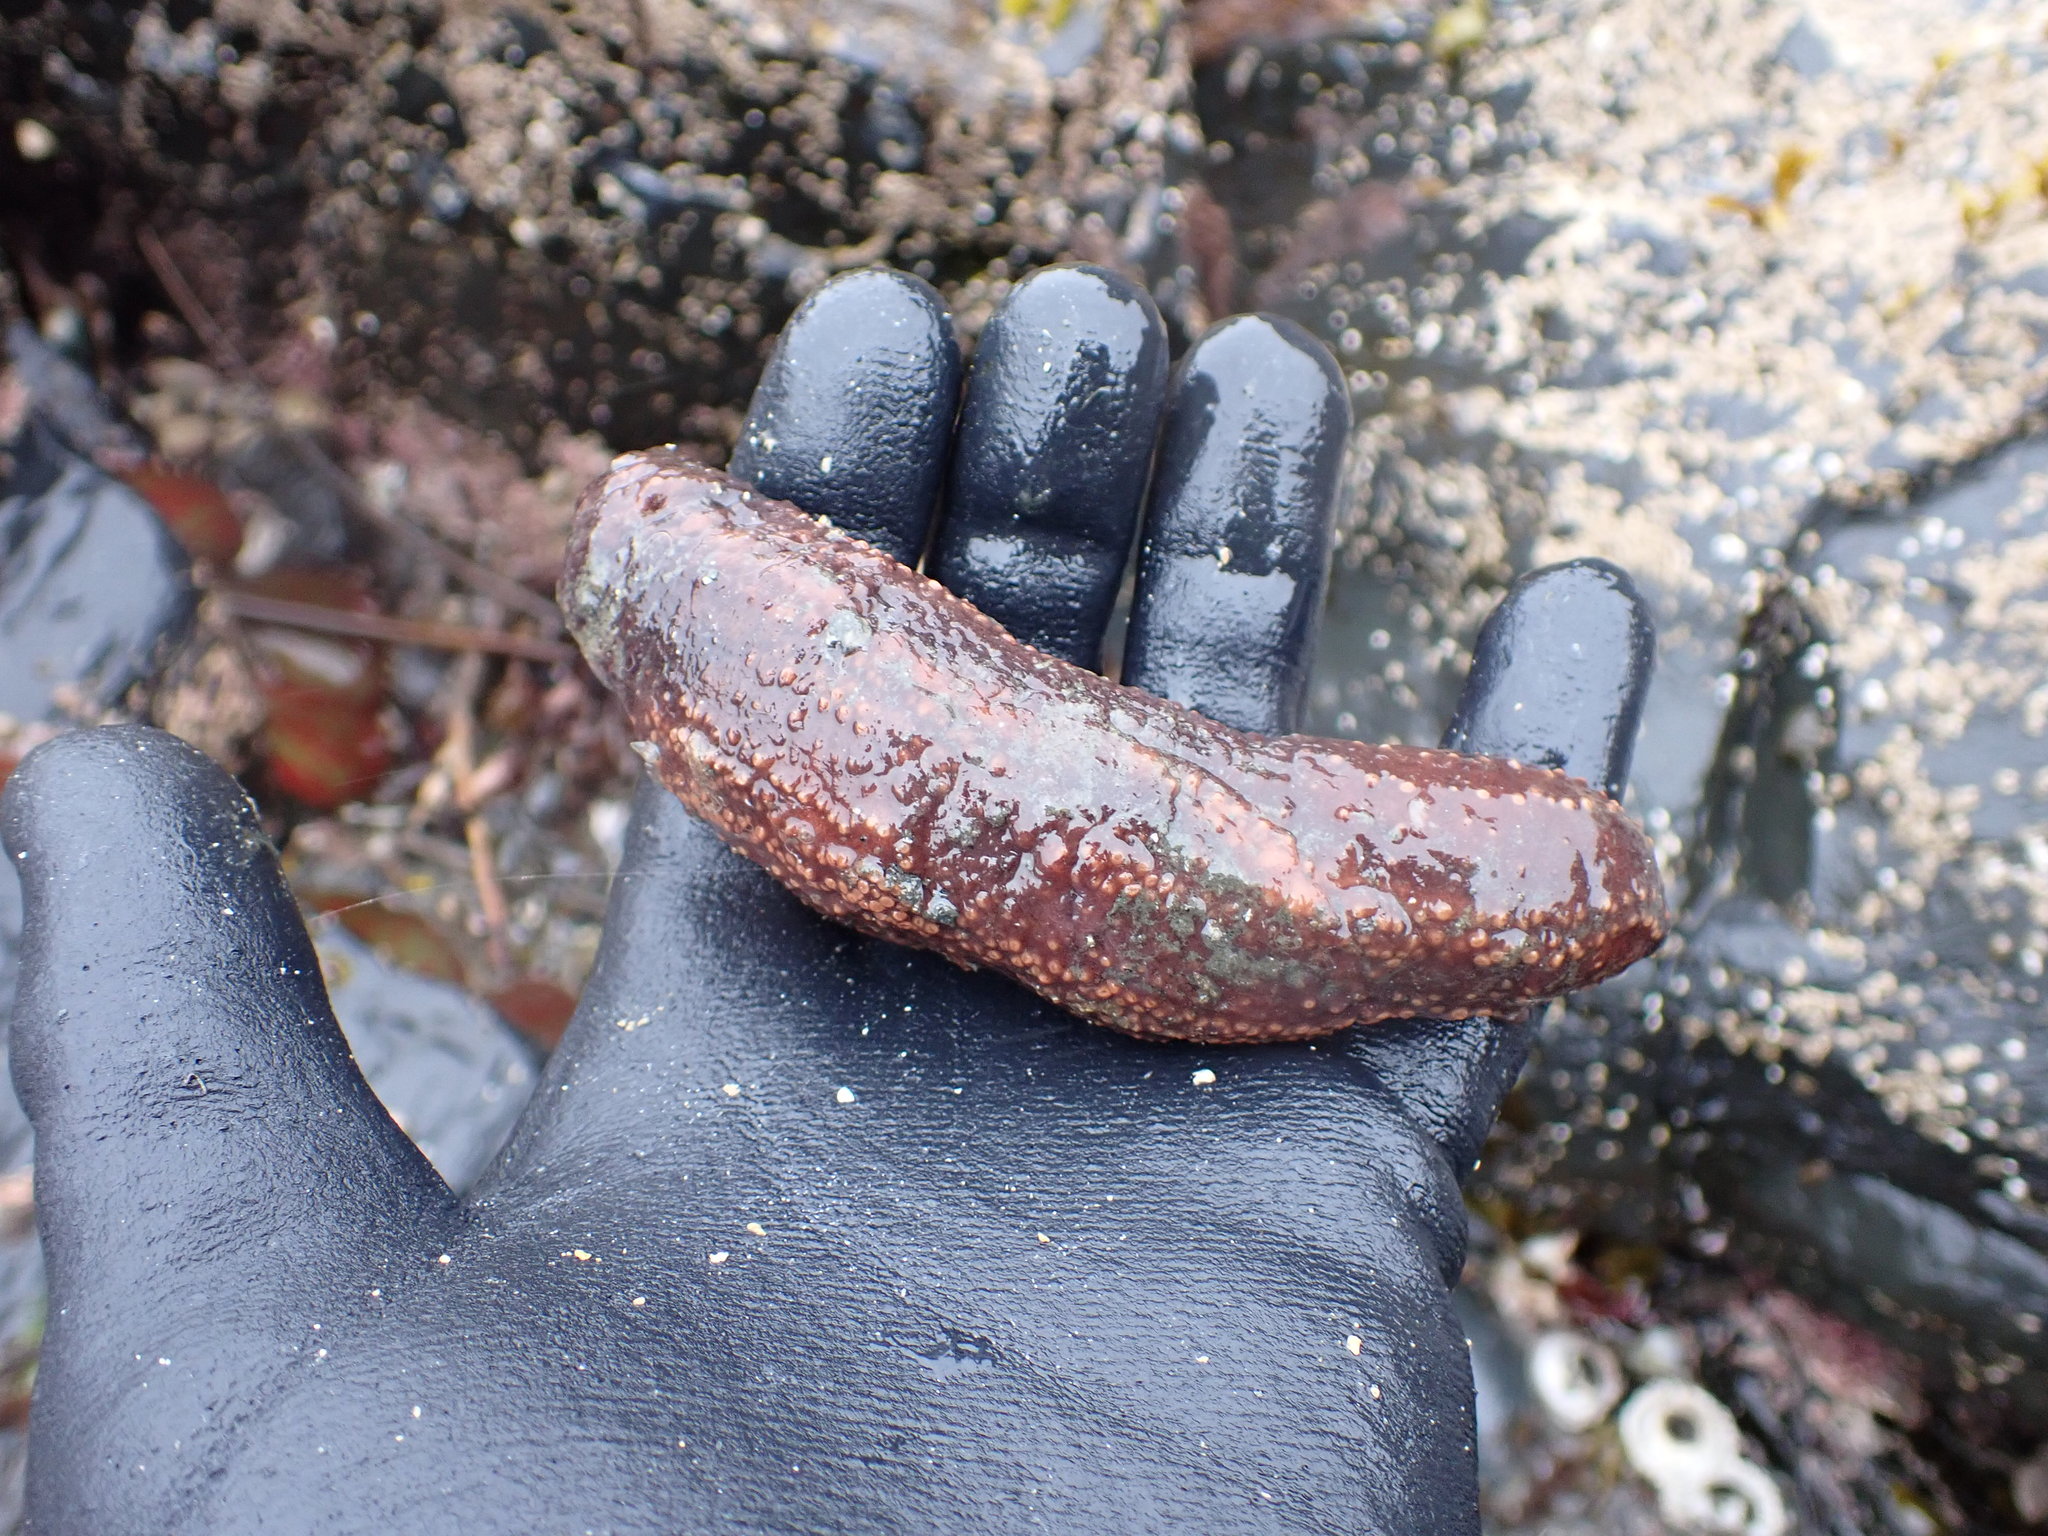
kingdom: Animalia
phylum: Echinodermata
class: Holothuroidea
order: Dendrochirotida
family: Cucumariidae
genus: Cucumaria
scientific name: Cucumaria miniata
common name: Orange sea cucumber
